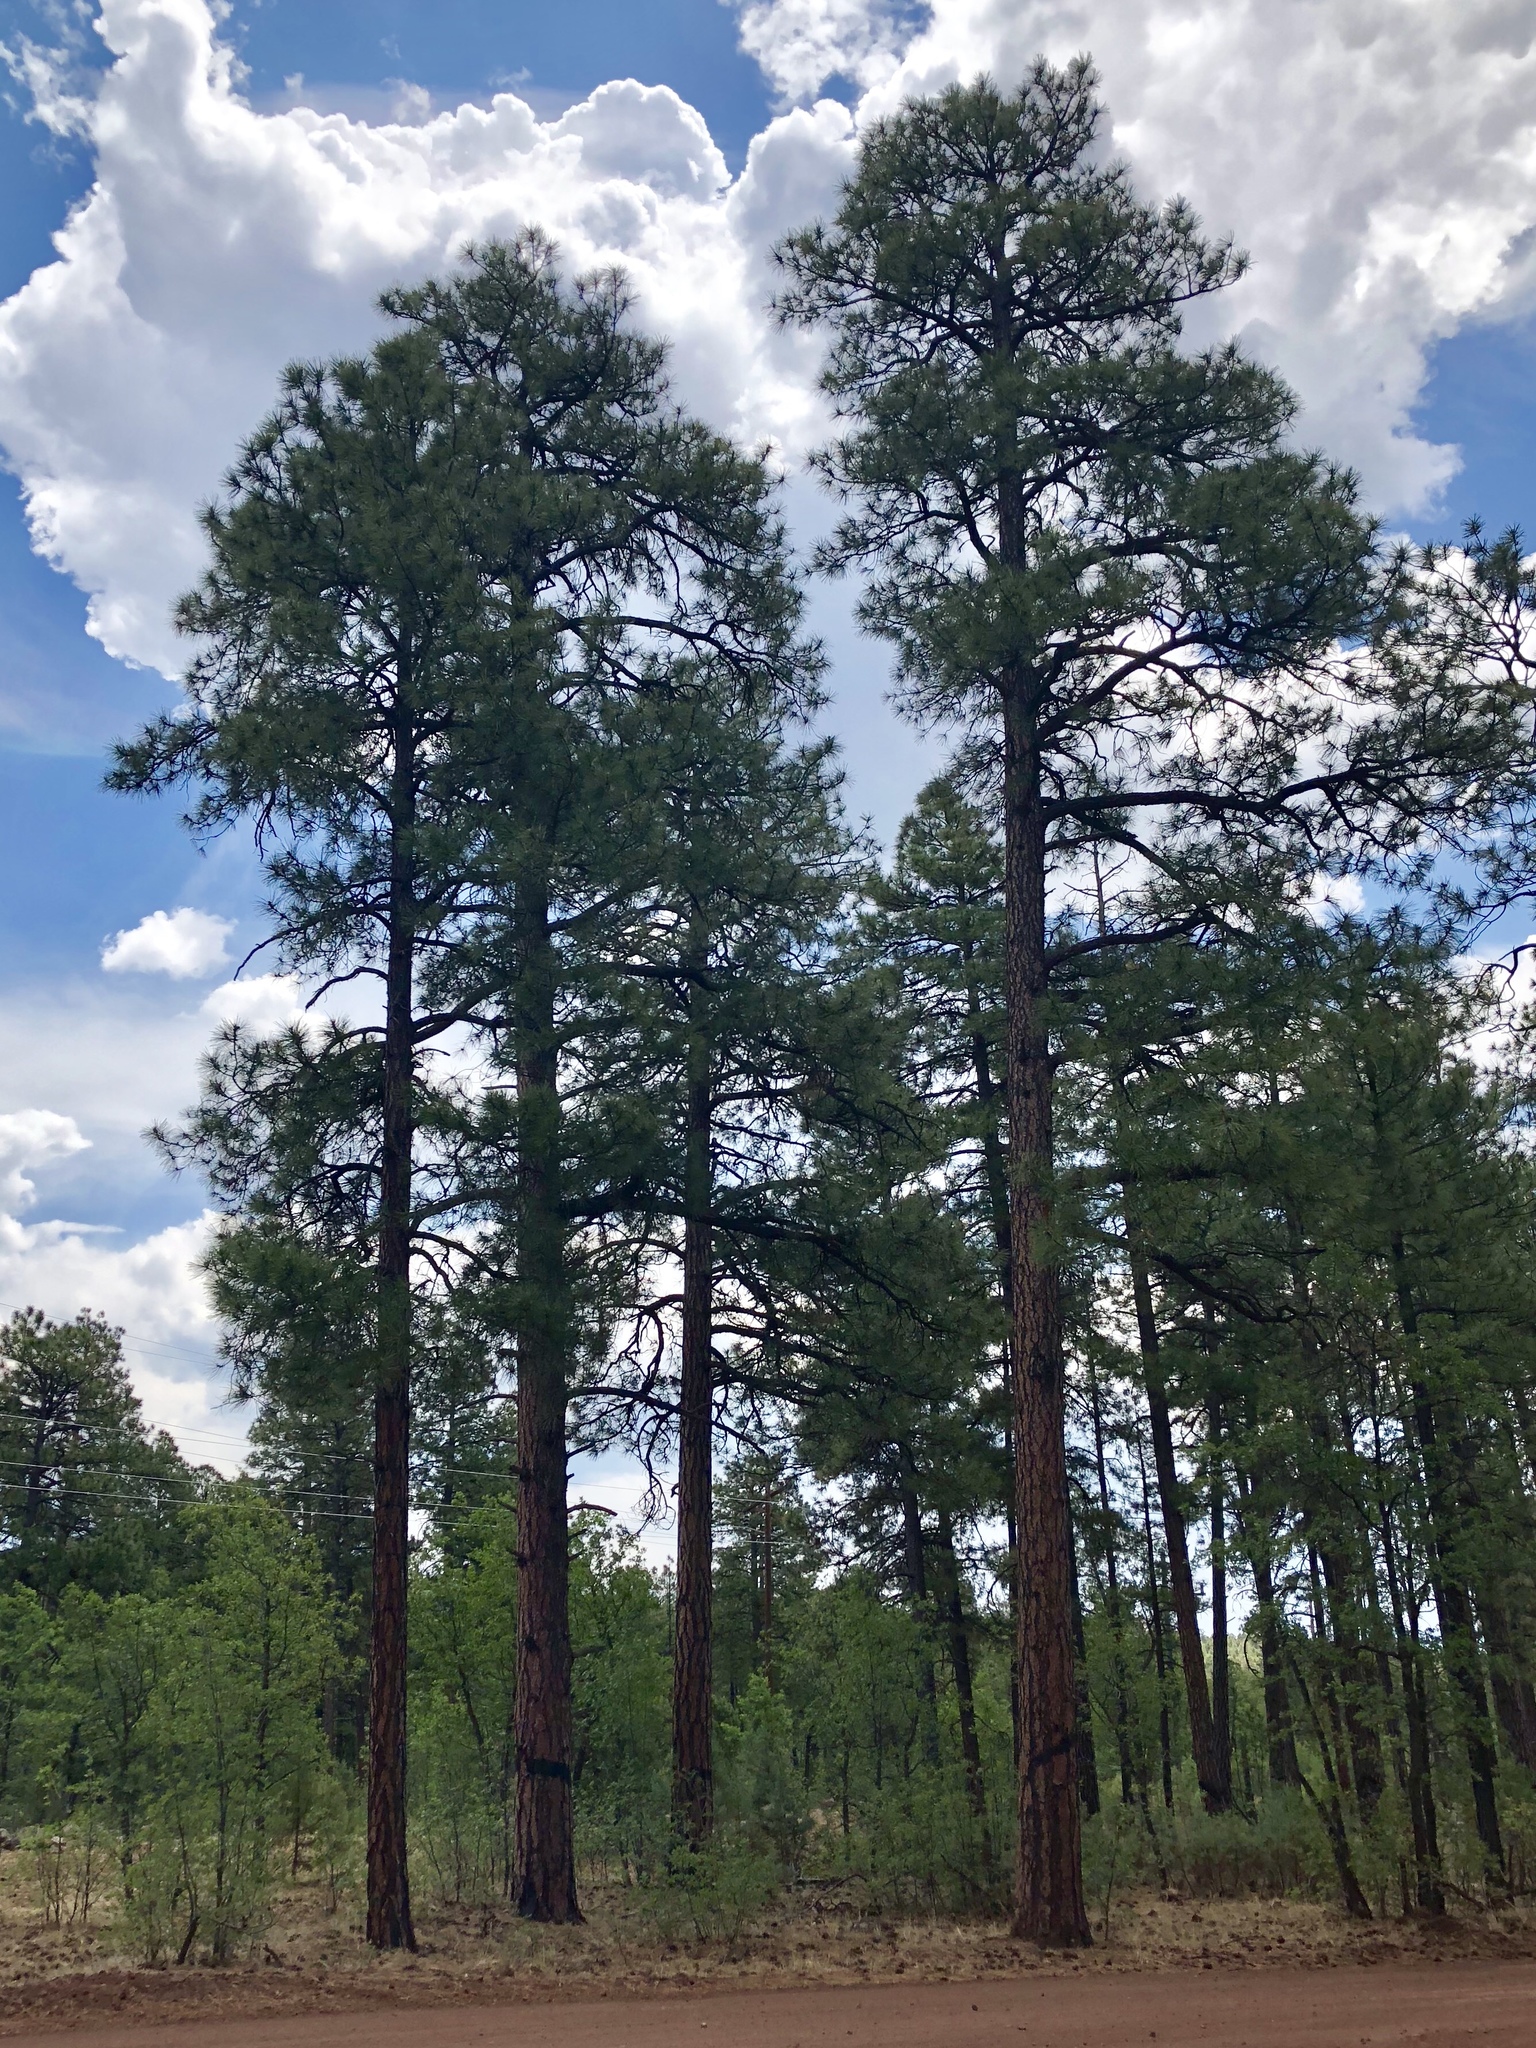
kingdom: Plantae
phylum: Tracheophyta
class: Pinopsida
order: Pinales
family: Pinaceae
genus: Pinus
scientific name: Pinus ponderosa
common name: Western yellow-pine
